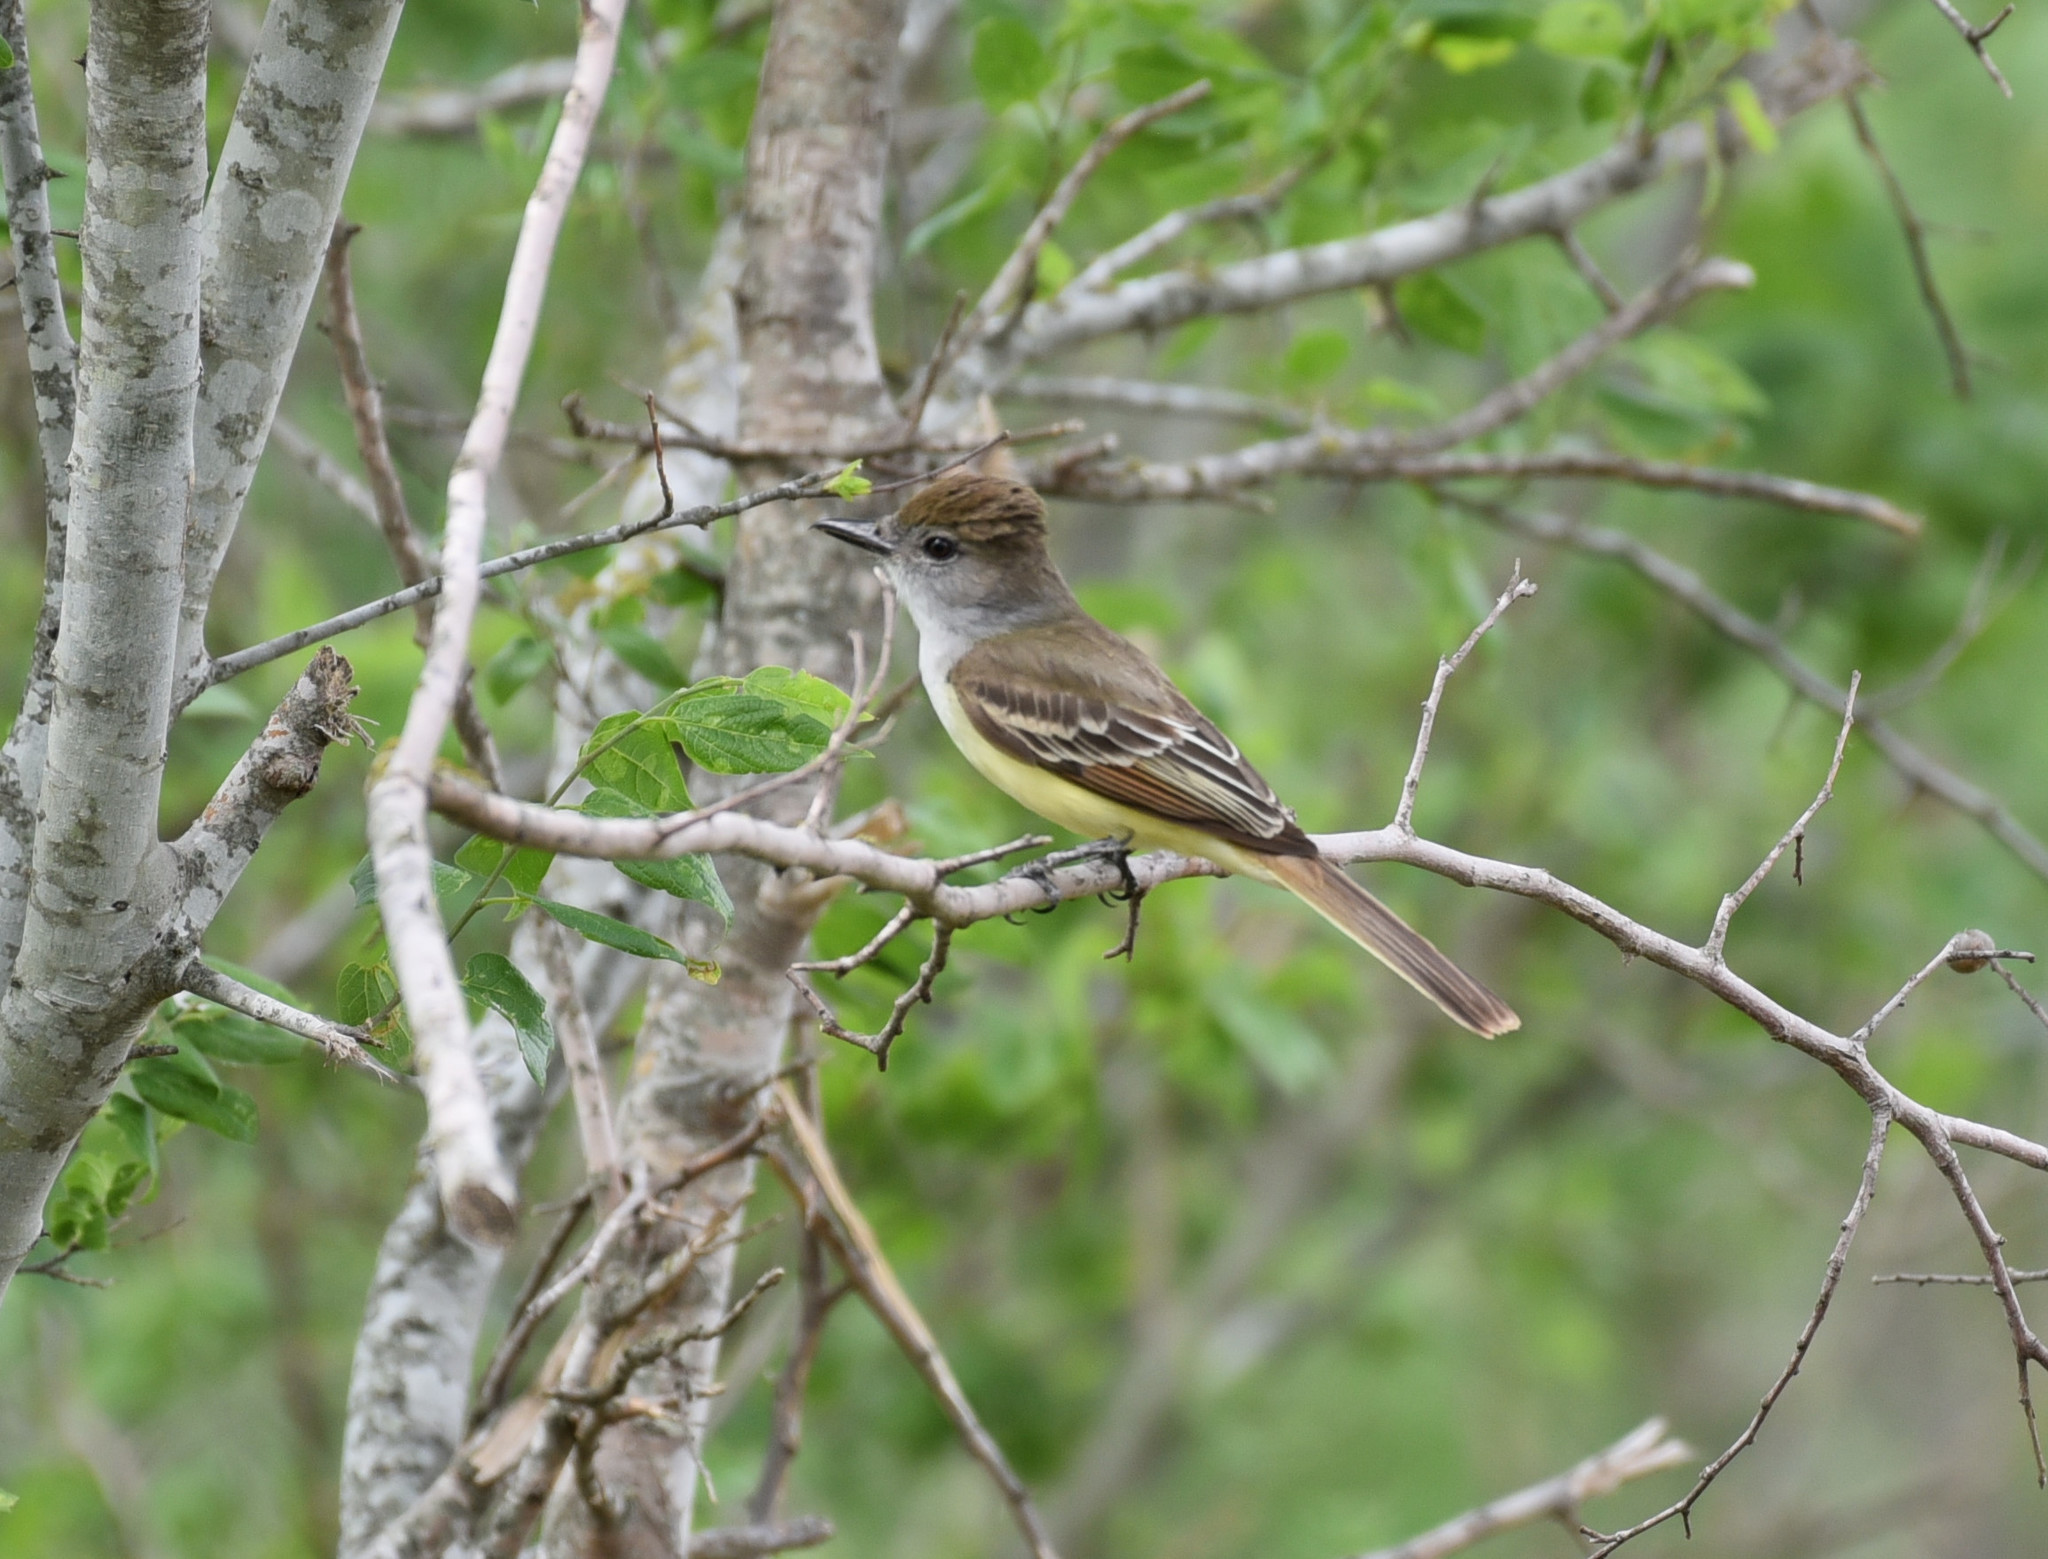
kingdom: Animalia
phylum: Chordata
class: Aves
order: Passeriformes
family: Tyrannidae
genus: Myiarchus
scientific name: Myiarchus tyrannulus
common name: Brown-crested flycatcher
